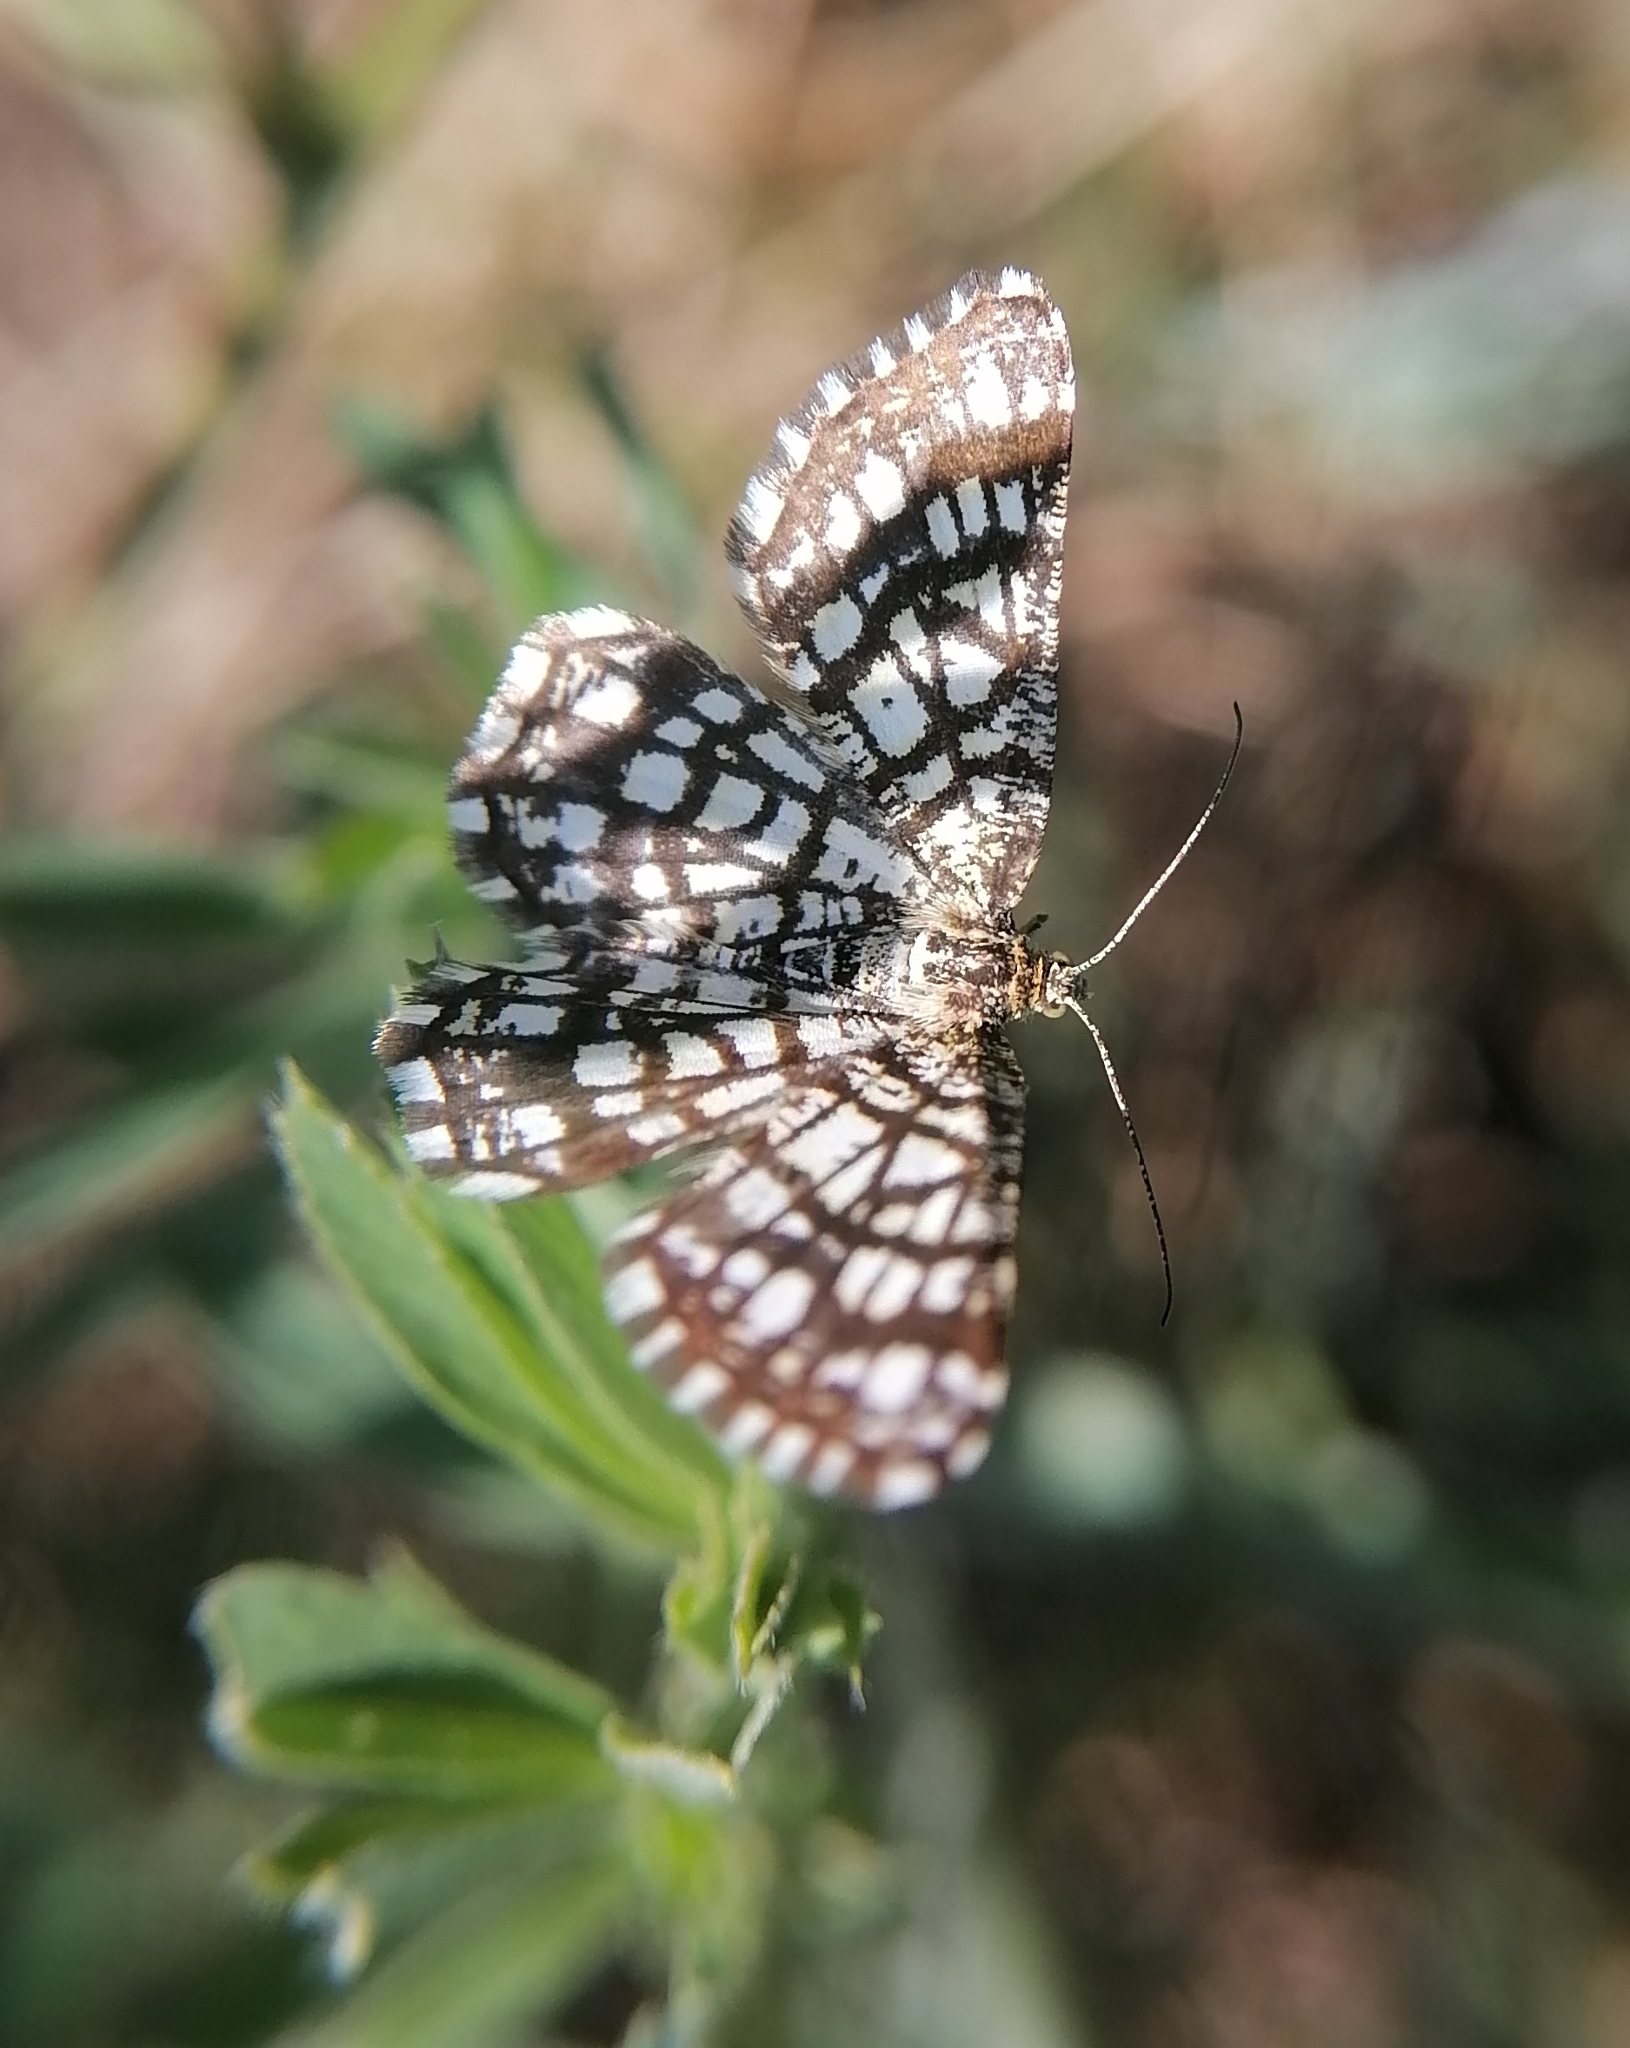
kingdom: Animalia
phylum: Arthropoda
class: Insecta
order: Lepidoptera
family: Geometridae
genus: Chiasmia
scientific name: Chiasmia clathrata
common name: Latticed heath
